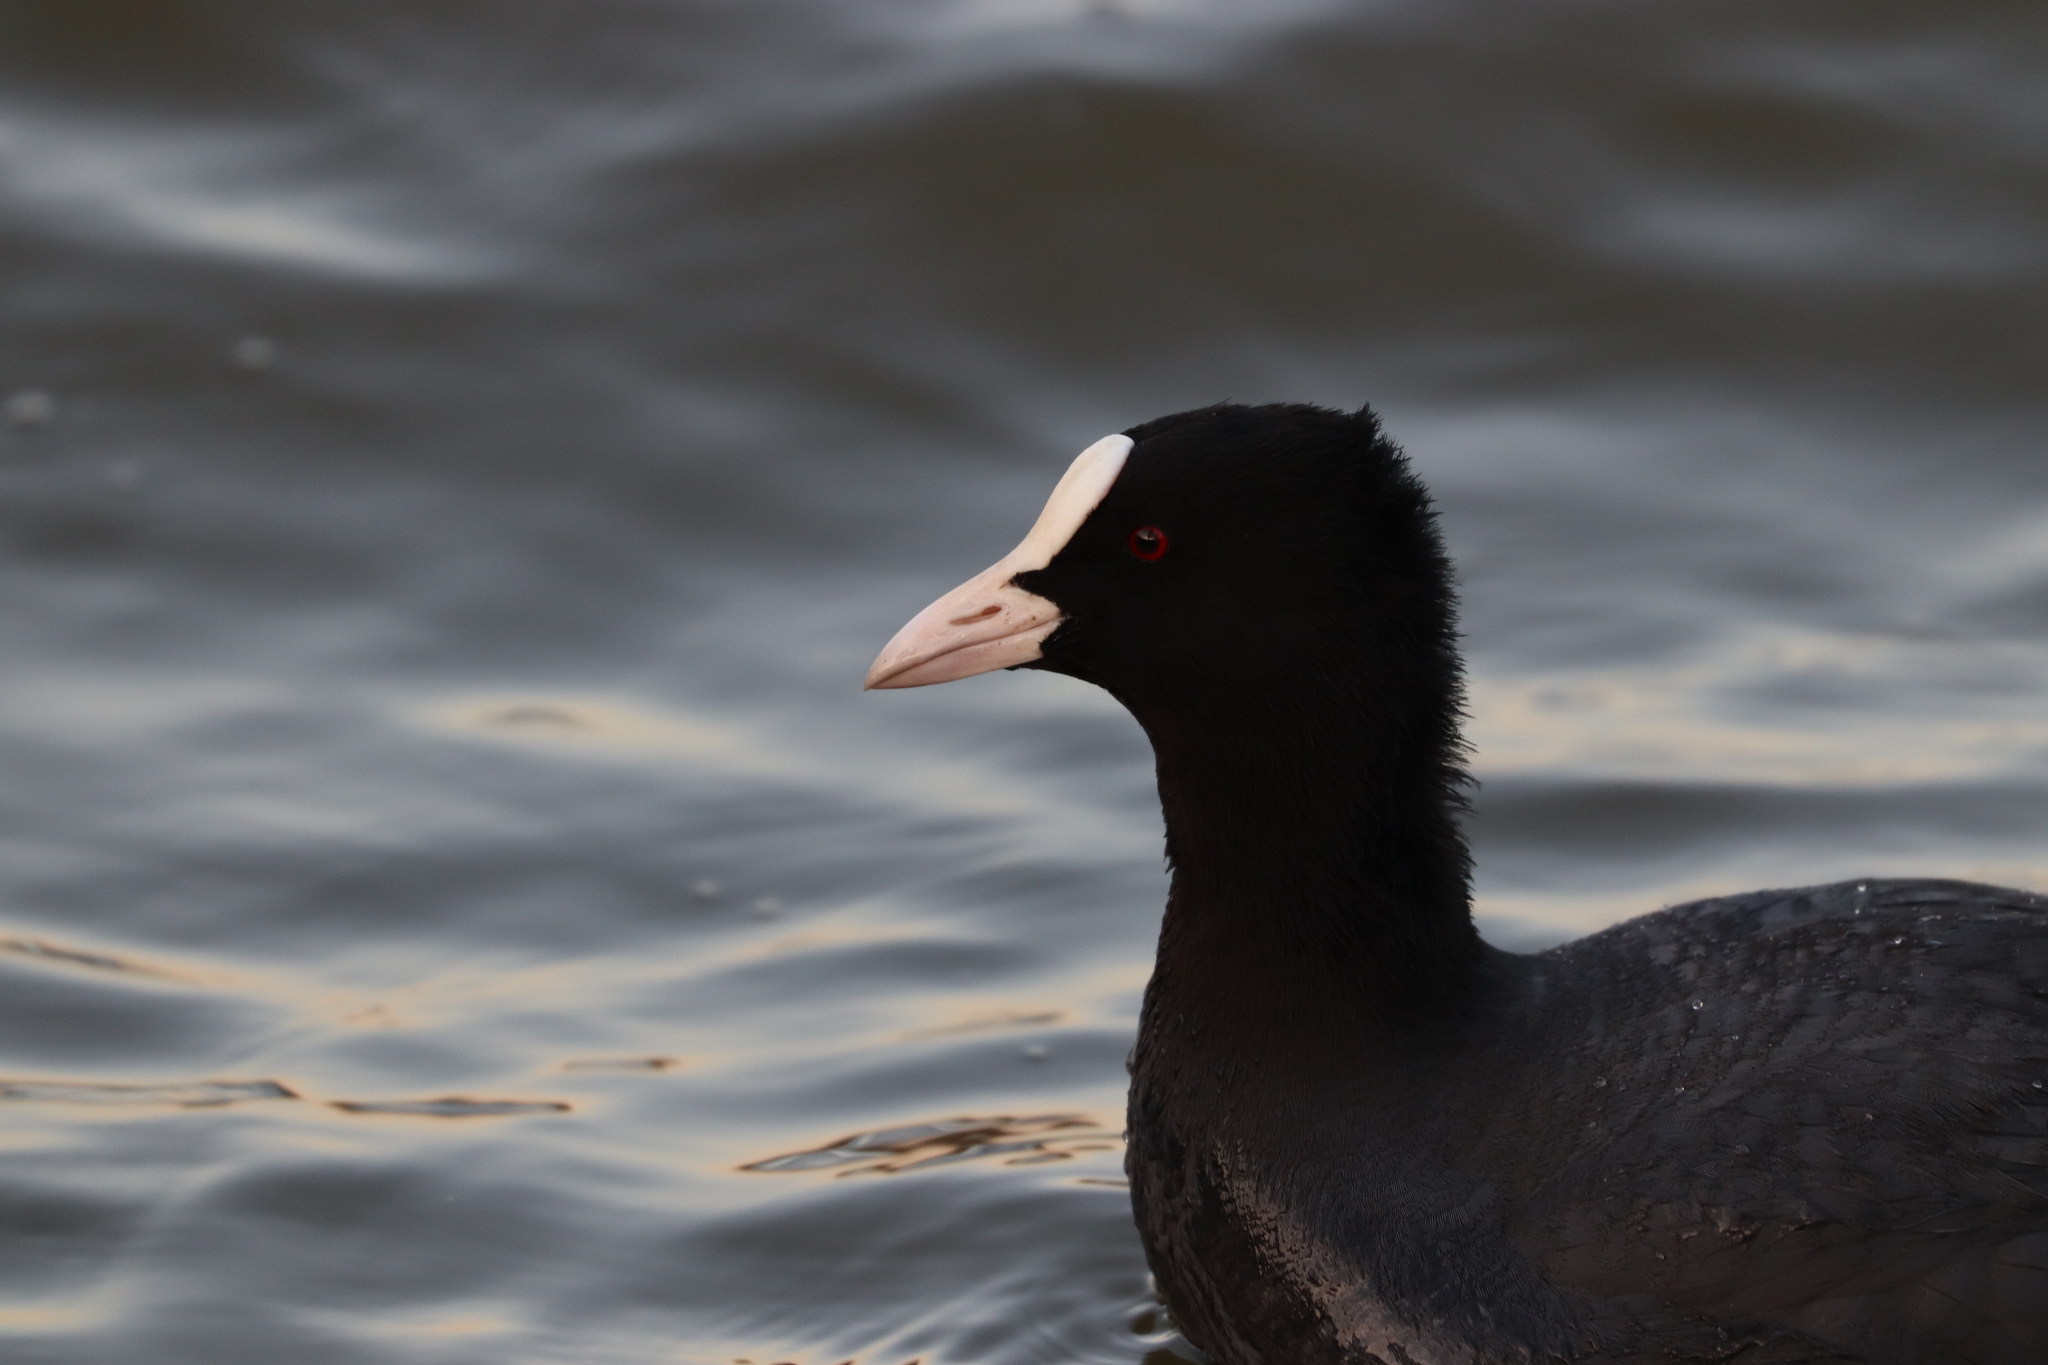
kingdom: Animalia
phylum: Chordata
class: Aves
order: Gruiformes
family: Rallidae
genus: Fulica
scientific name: Fulica atra
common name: Eurasian coot
